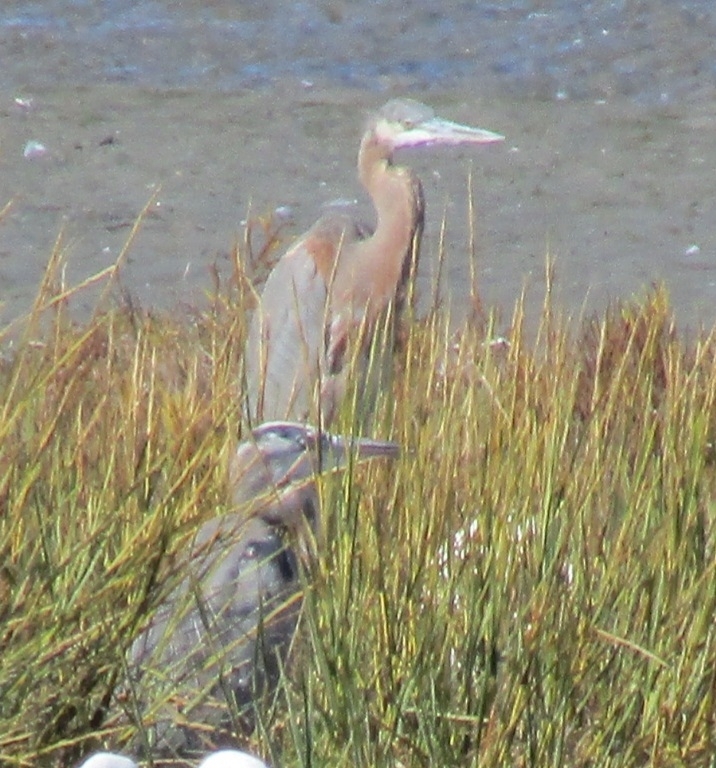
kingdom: Animalia
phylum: Chordata
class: Aves
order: Pelecaniformes
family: Ardeidae
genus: Ardea
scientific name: Ardea herodias
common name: Great blue heron
